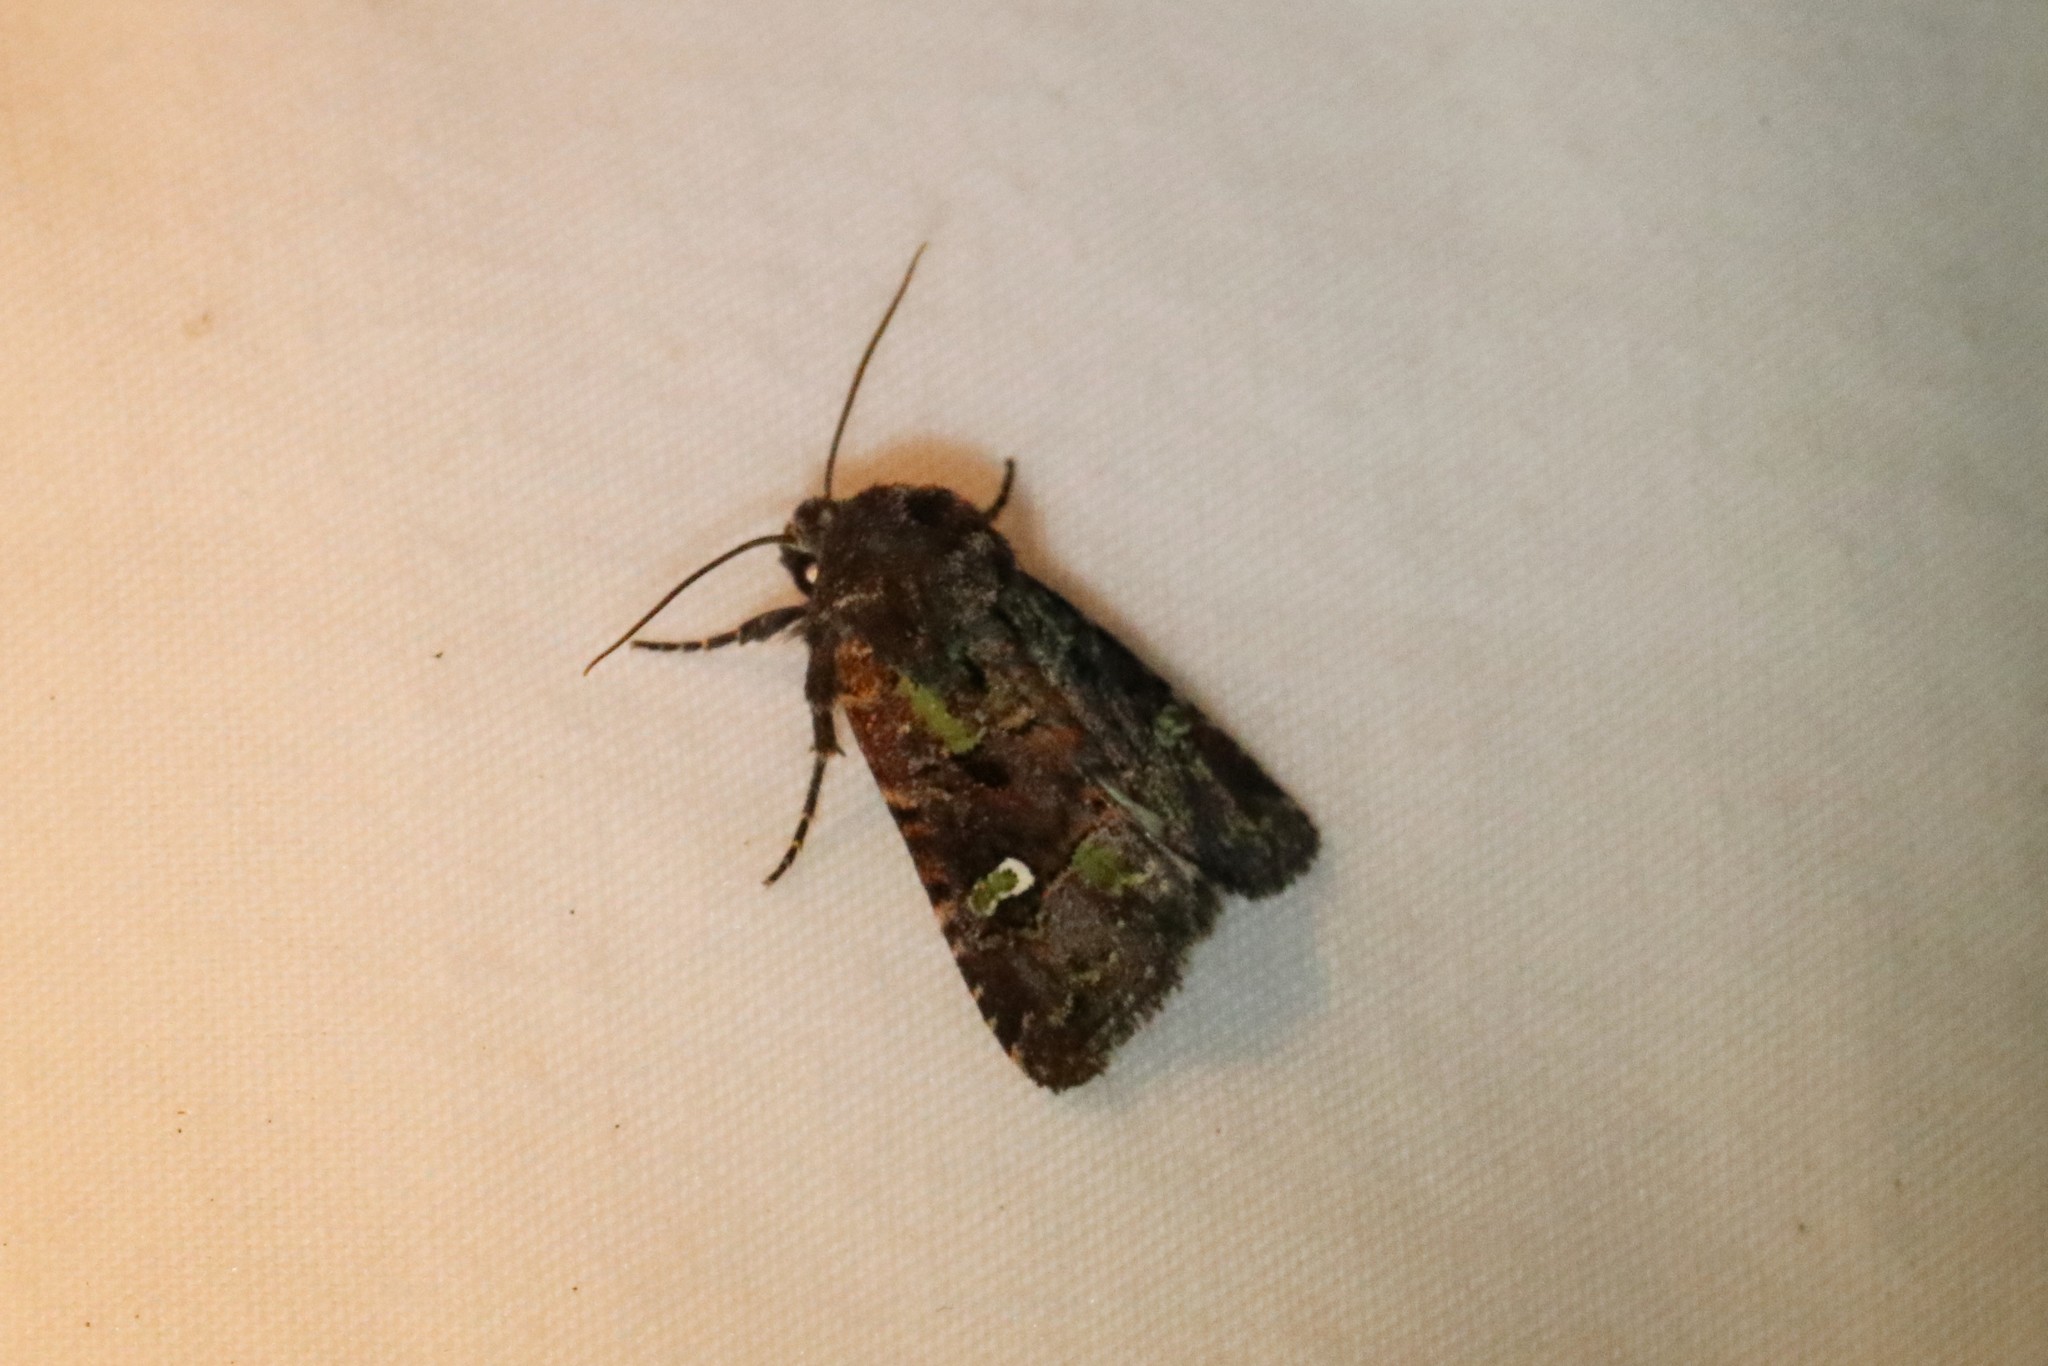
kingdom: Animalia
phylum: Arthropoda
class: Insecta
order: Lepidoptera
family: Noctuidae
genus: Lacinipolia
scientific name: Lacinipolia renigera
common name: Kidney-spotted minor
